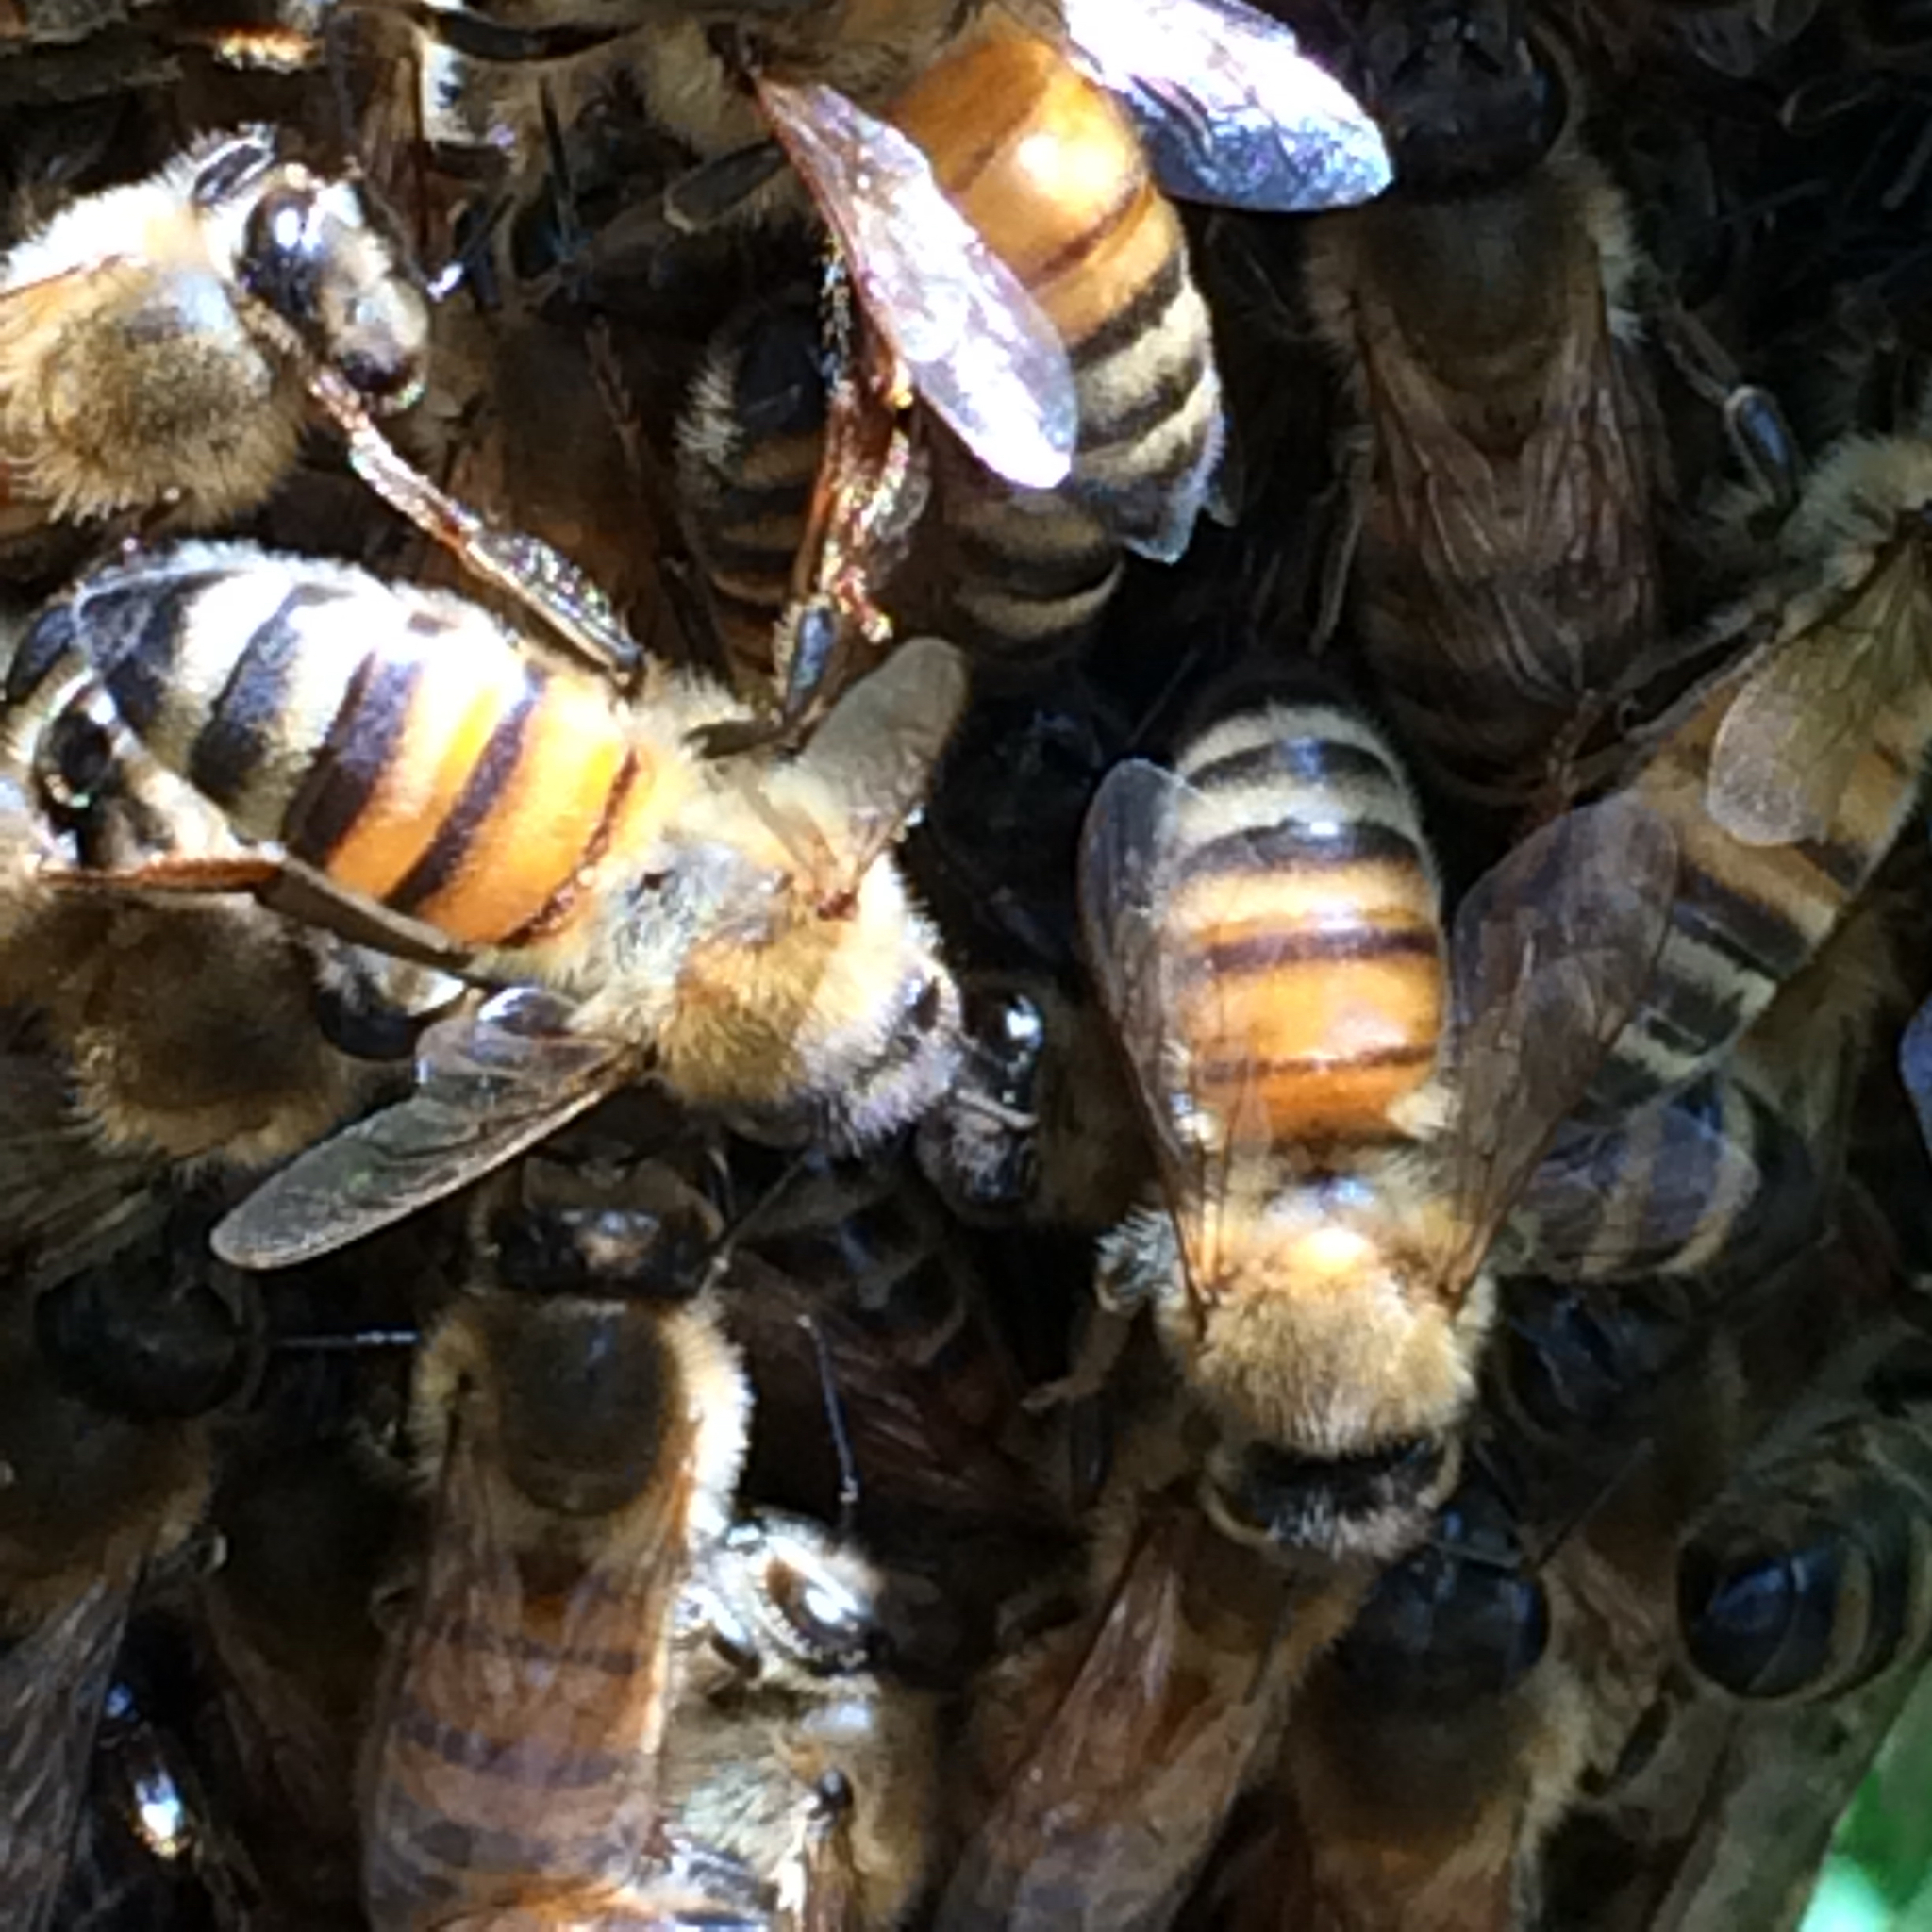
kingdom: Animalia
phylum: Arthropoda
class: Insecta
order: Hymenoptera
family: Apidae
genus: Apis
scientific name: Apis mellifera
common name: Honey bee
